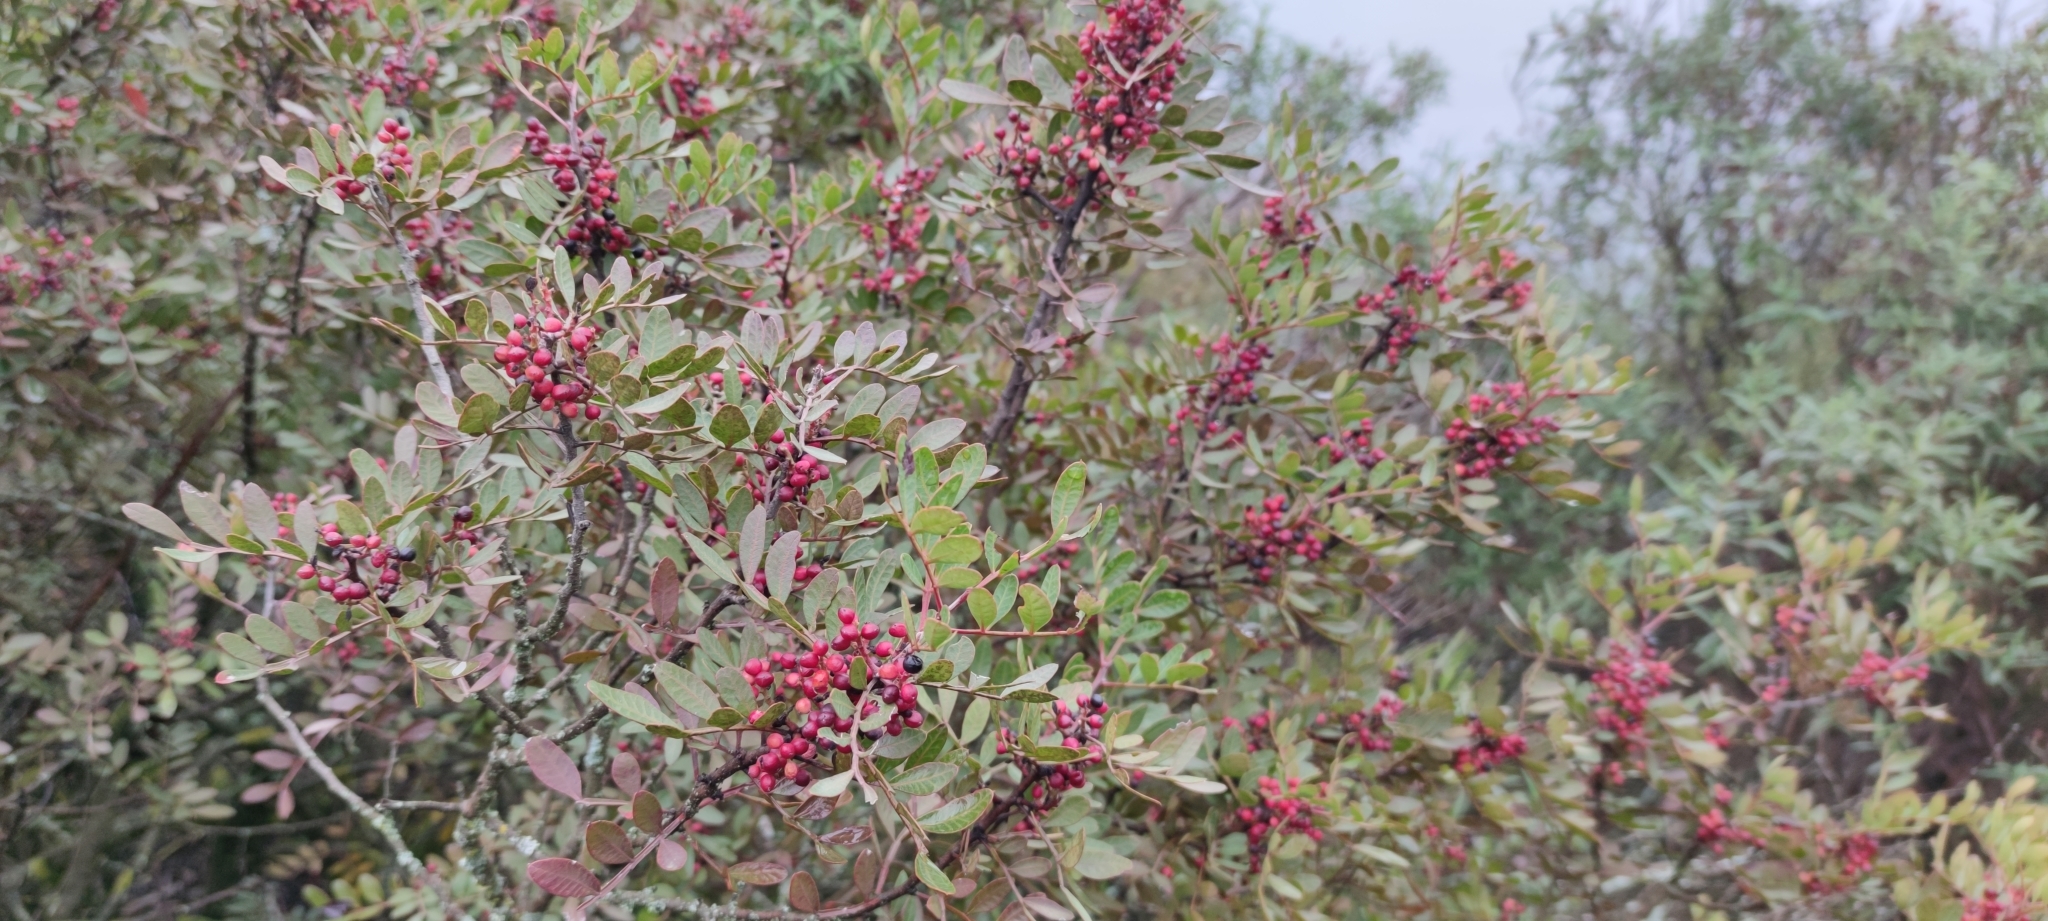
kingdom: Plantae
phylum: Tracheophyta
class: Magnoliopsida
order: Sapindales
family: Anacardiaceae
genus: Pistacia
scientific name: Pistacia lentiscus
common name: Lentisk
